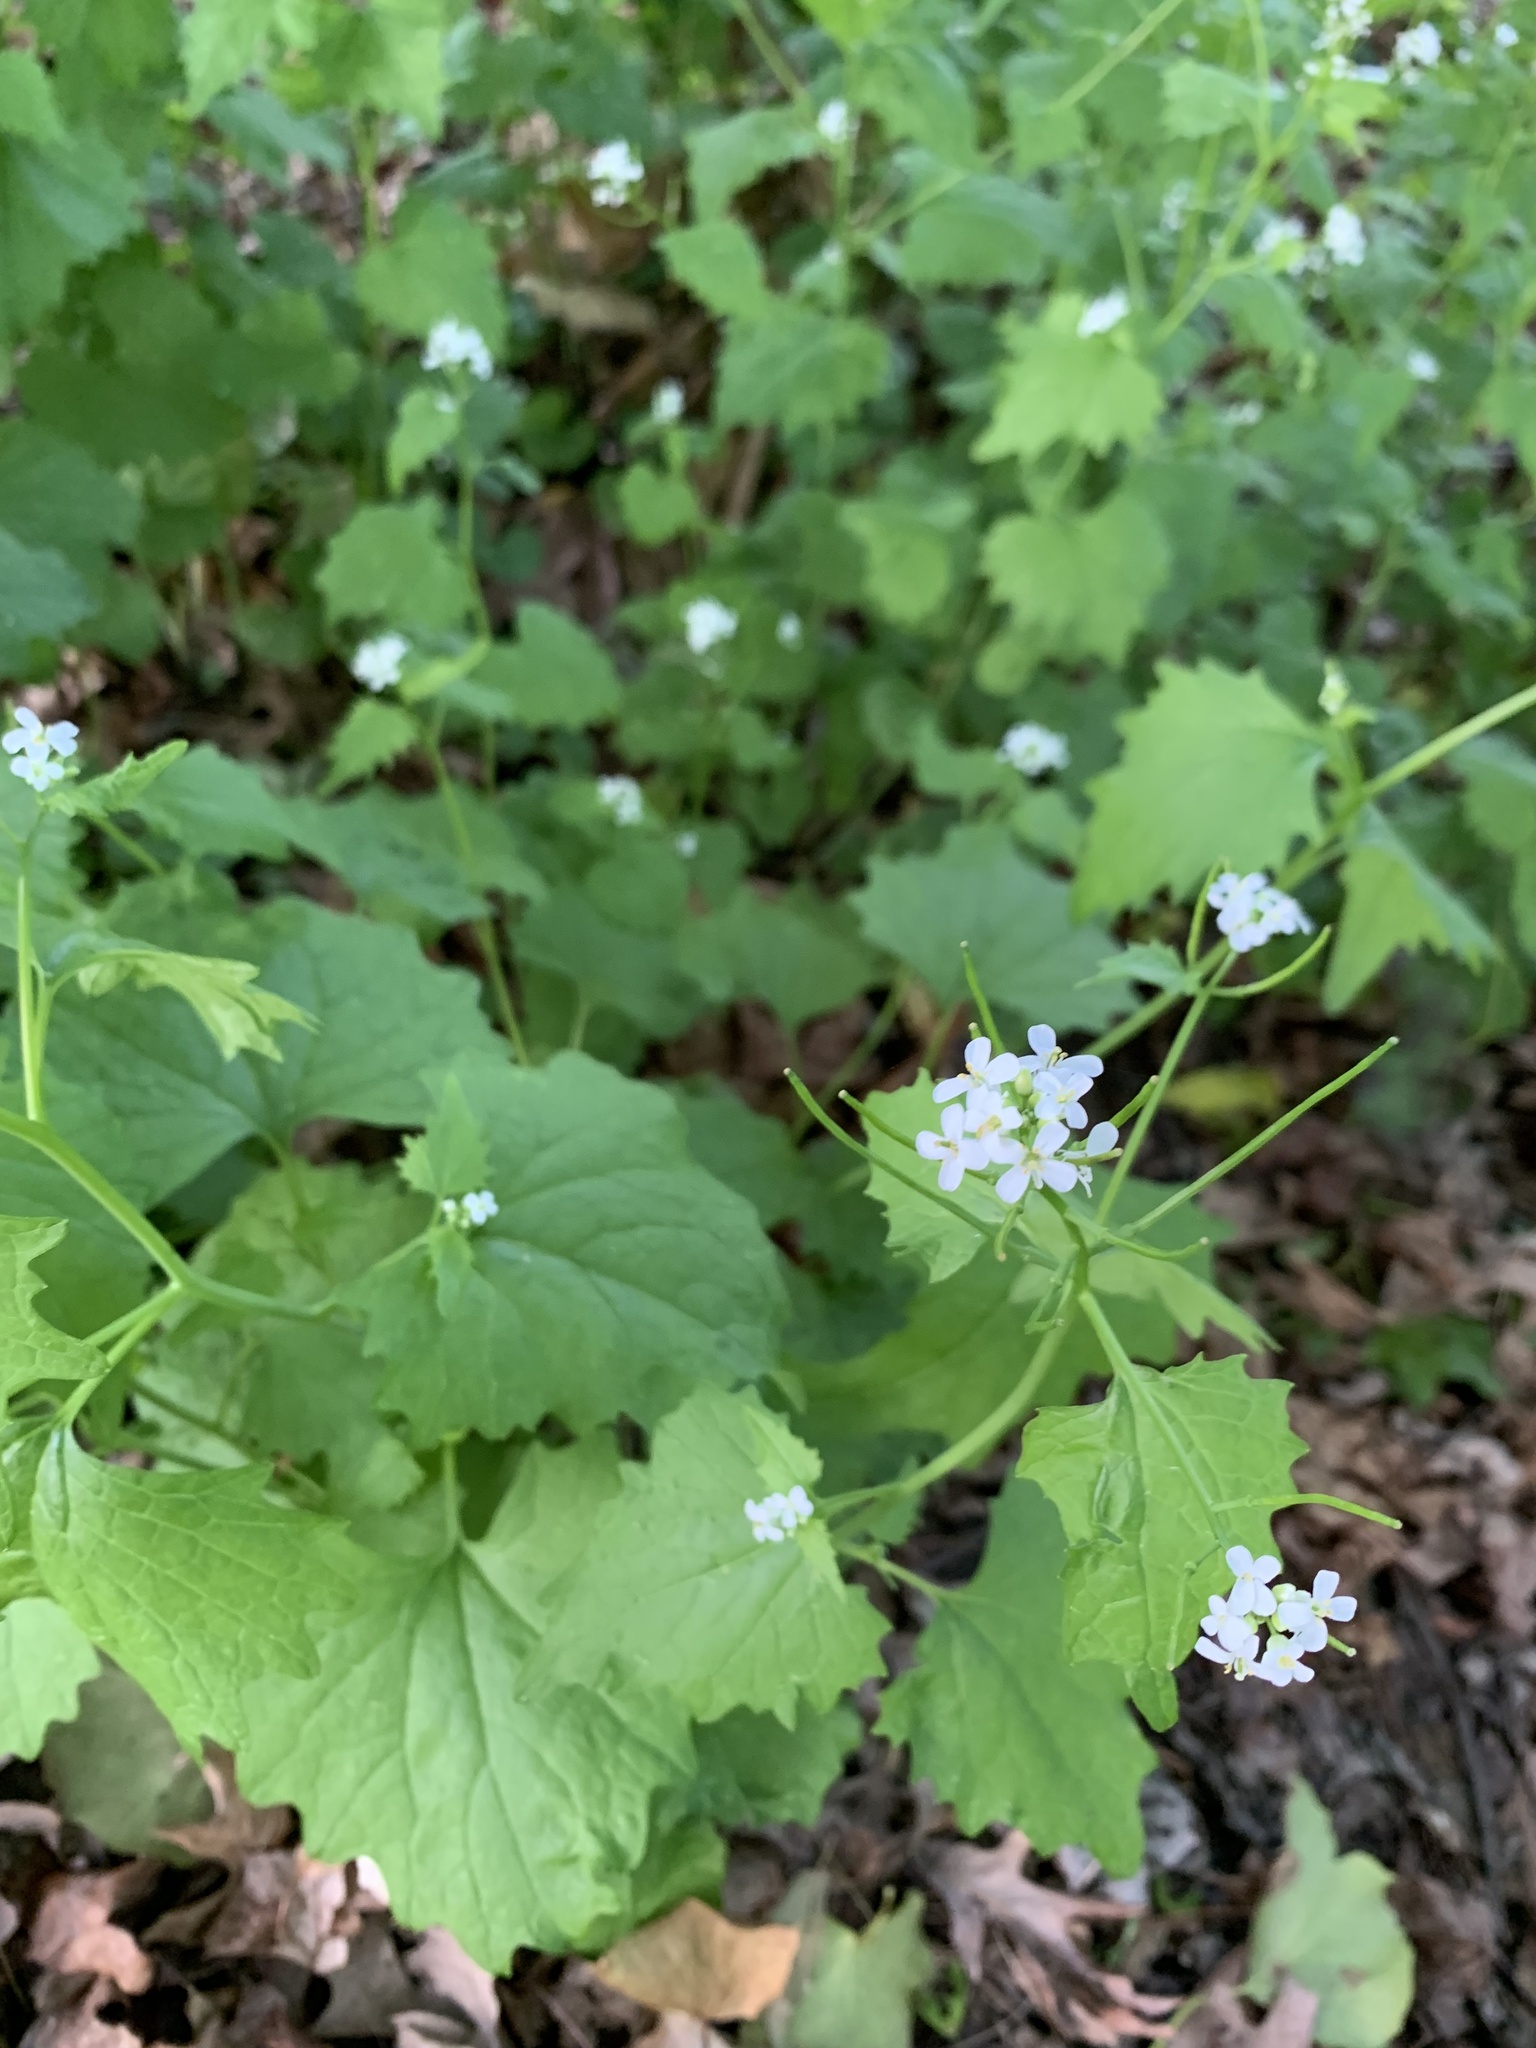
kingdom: Plantae
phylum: Tracheophyta
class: Magnoliopsida
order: Brassicales
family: Brassicaceae
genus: Alliaria
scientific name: Alliaria petiolata
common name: Garlic mustard
